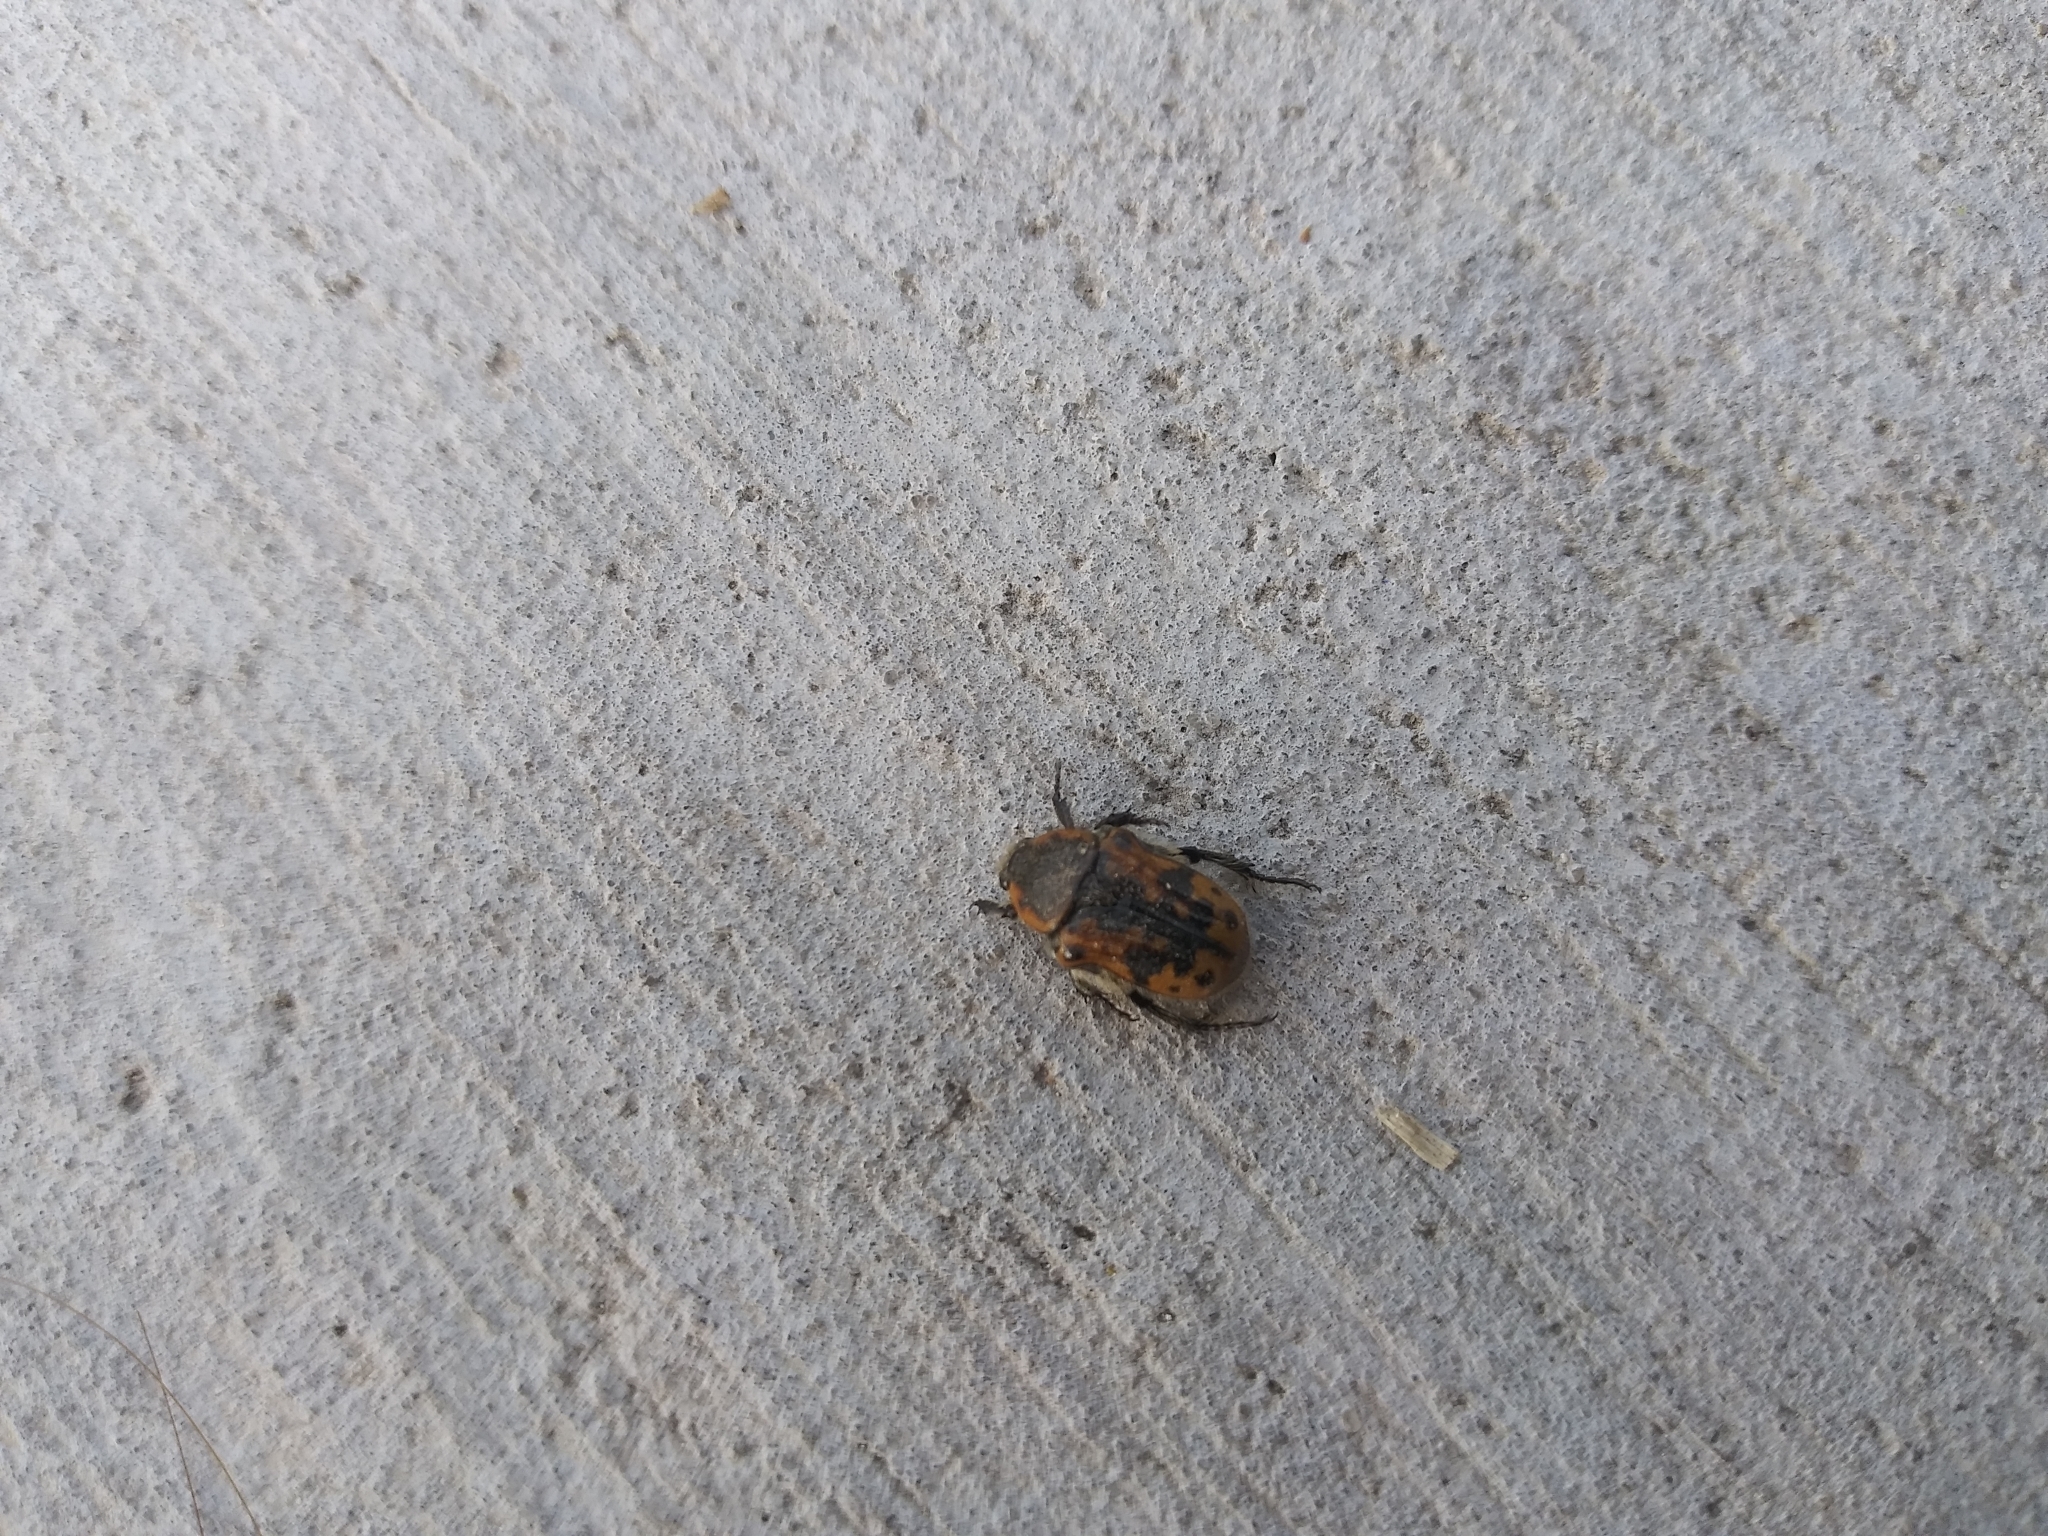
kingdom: Animalia
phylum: Arthropoda
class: Insecta
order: Coleoptera
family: Scarabaeidae
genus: Euphoria
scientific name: Euphoria kernii
